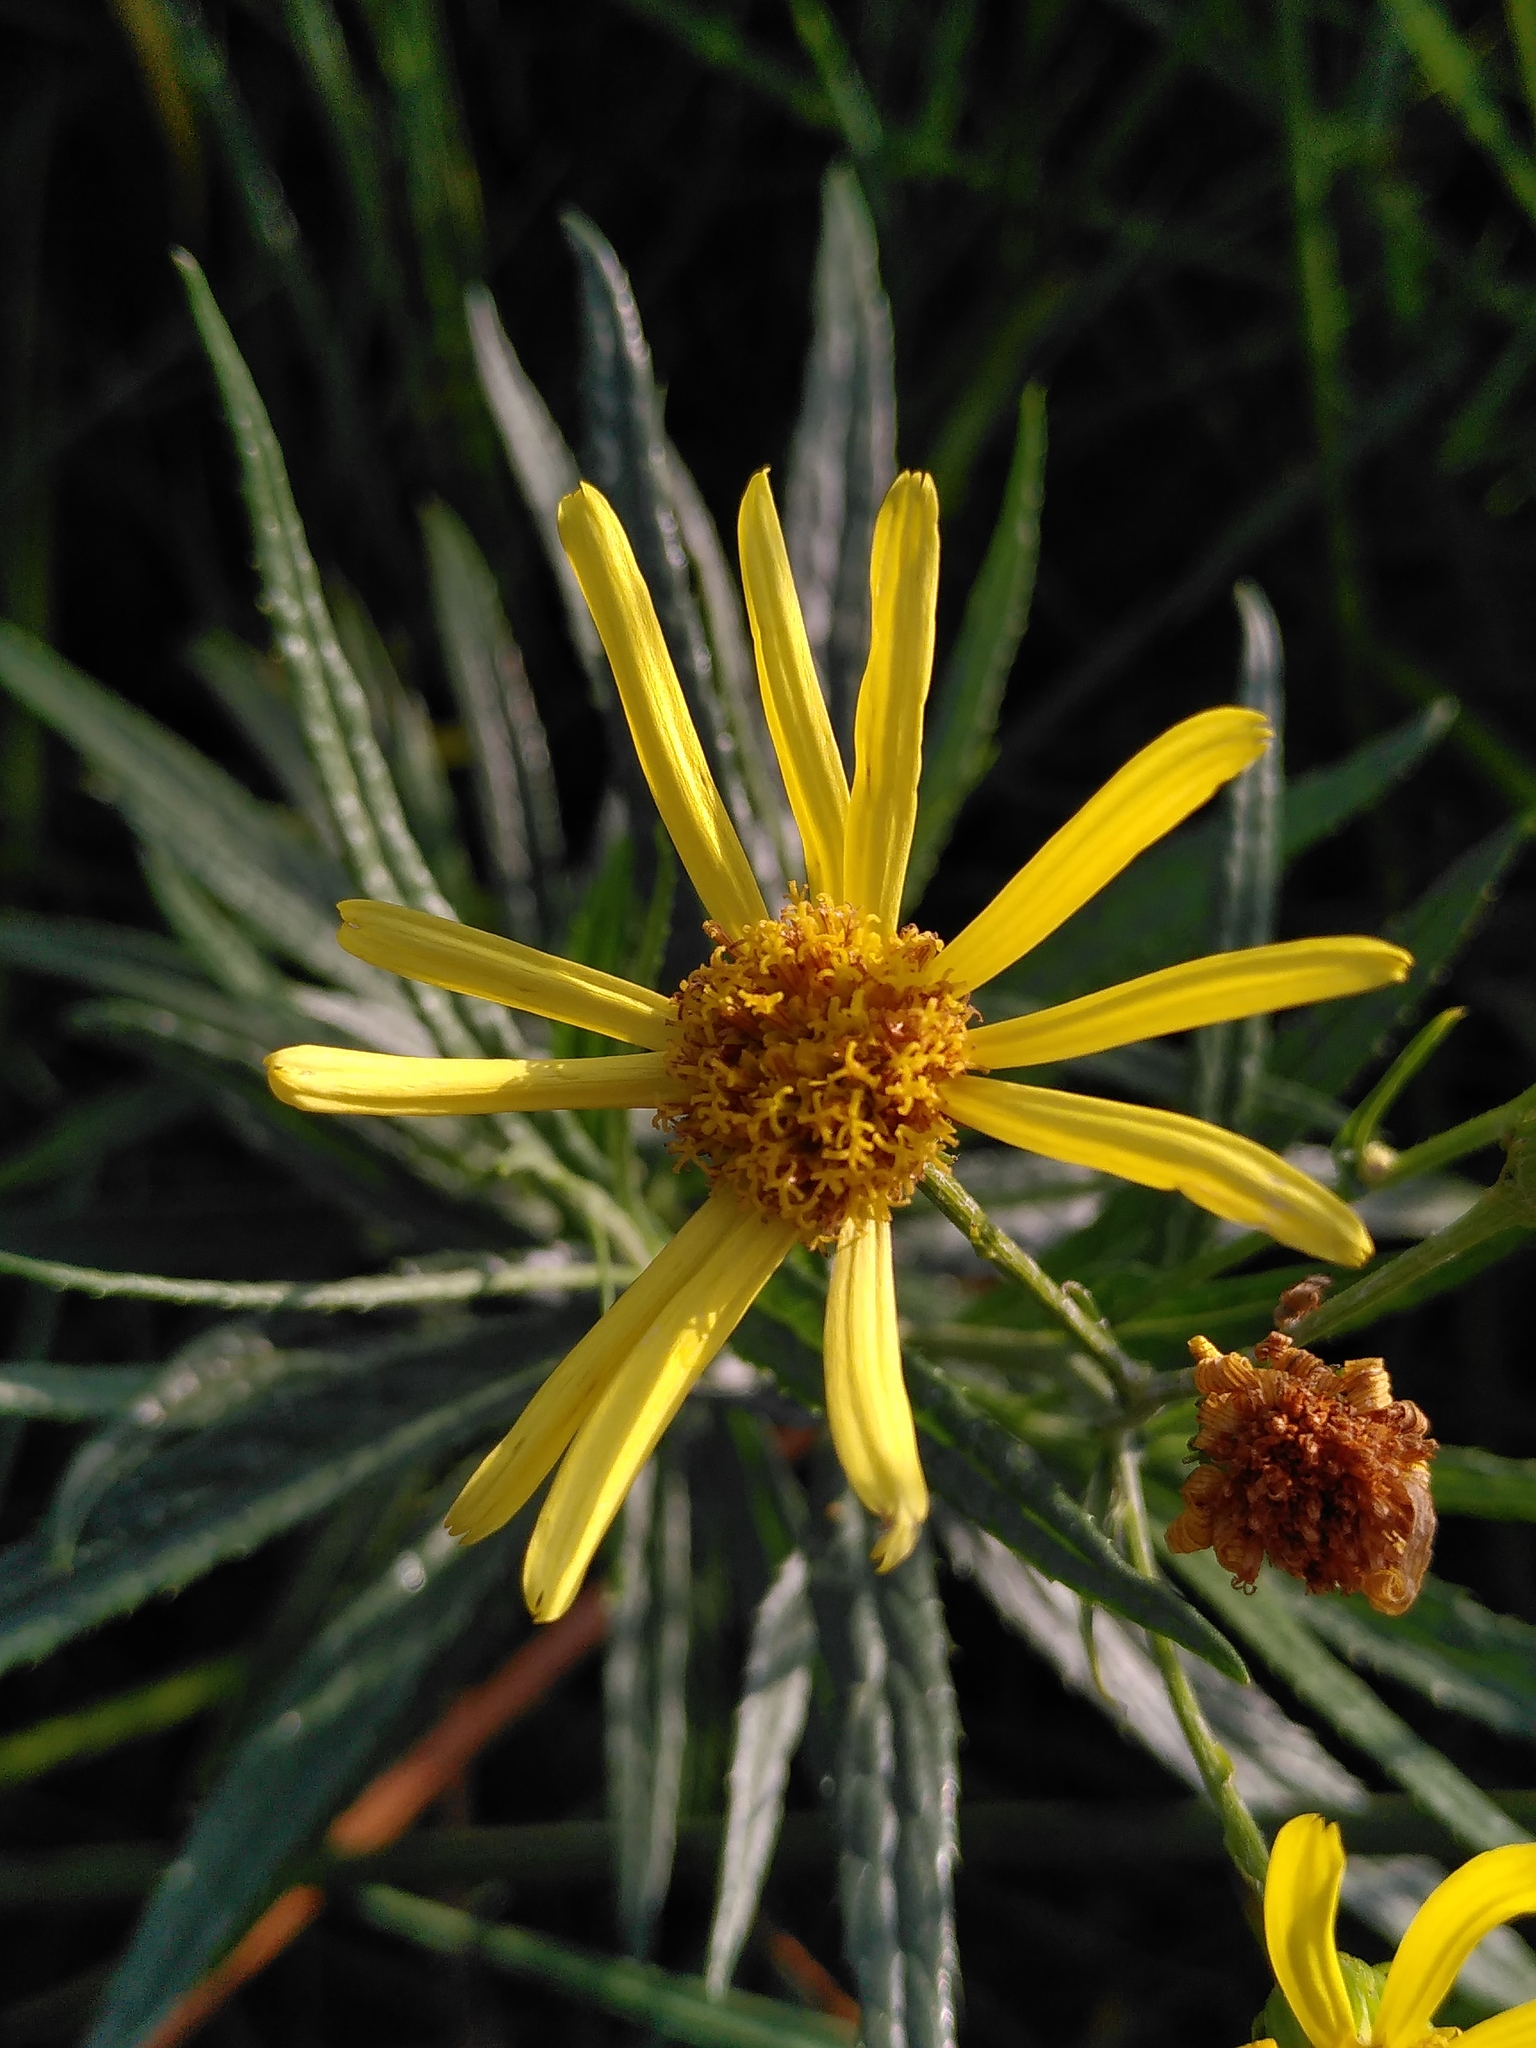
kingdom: Plantae
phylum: Tracheophyta
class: Magnoliopsida
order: Asterales
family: Asteraceae
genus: Jacobaea
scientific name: Jacobaea paludosa
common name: Fen ragwort
